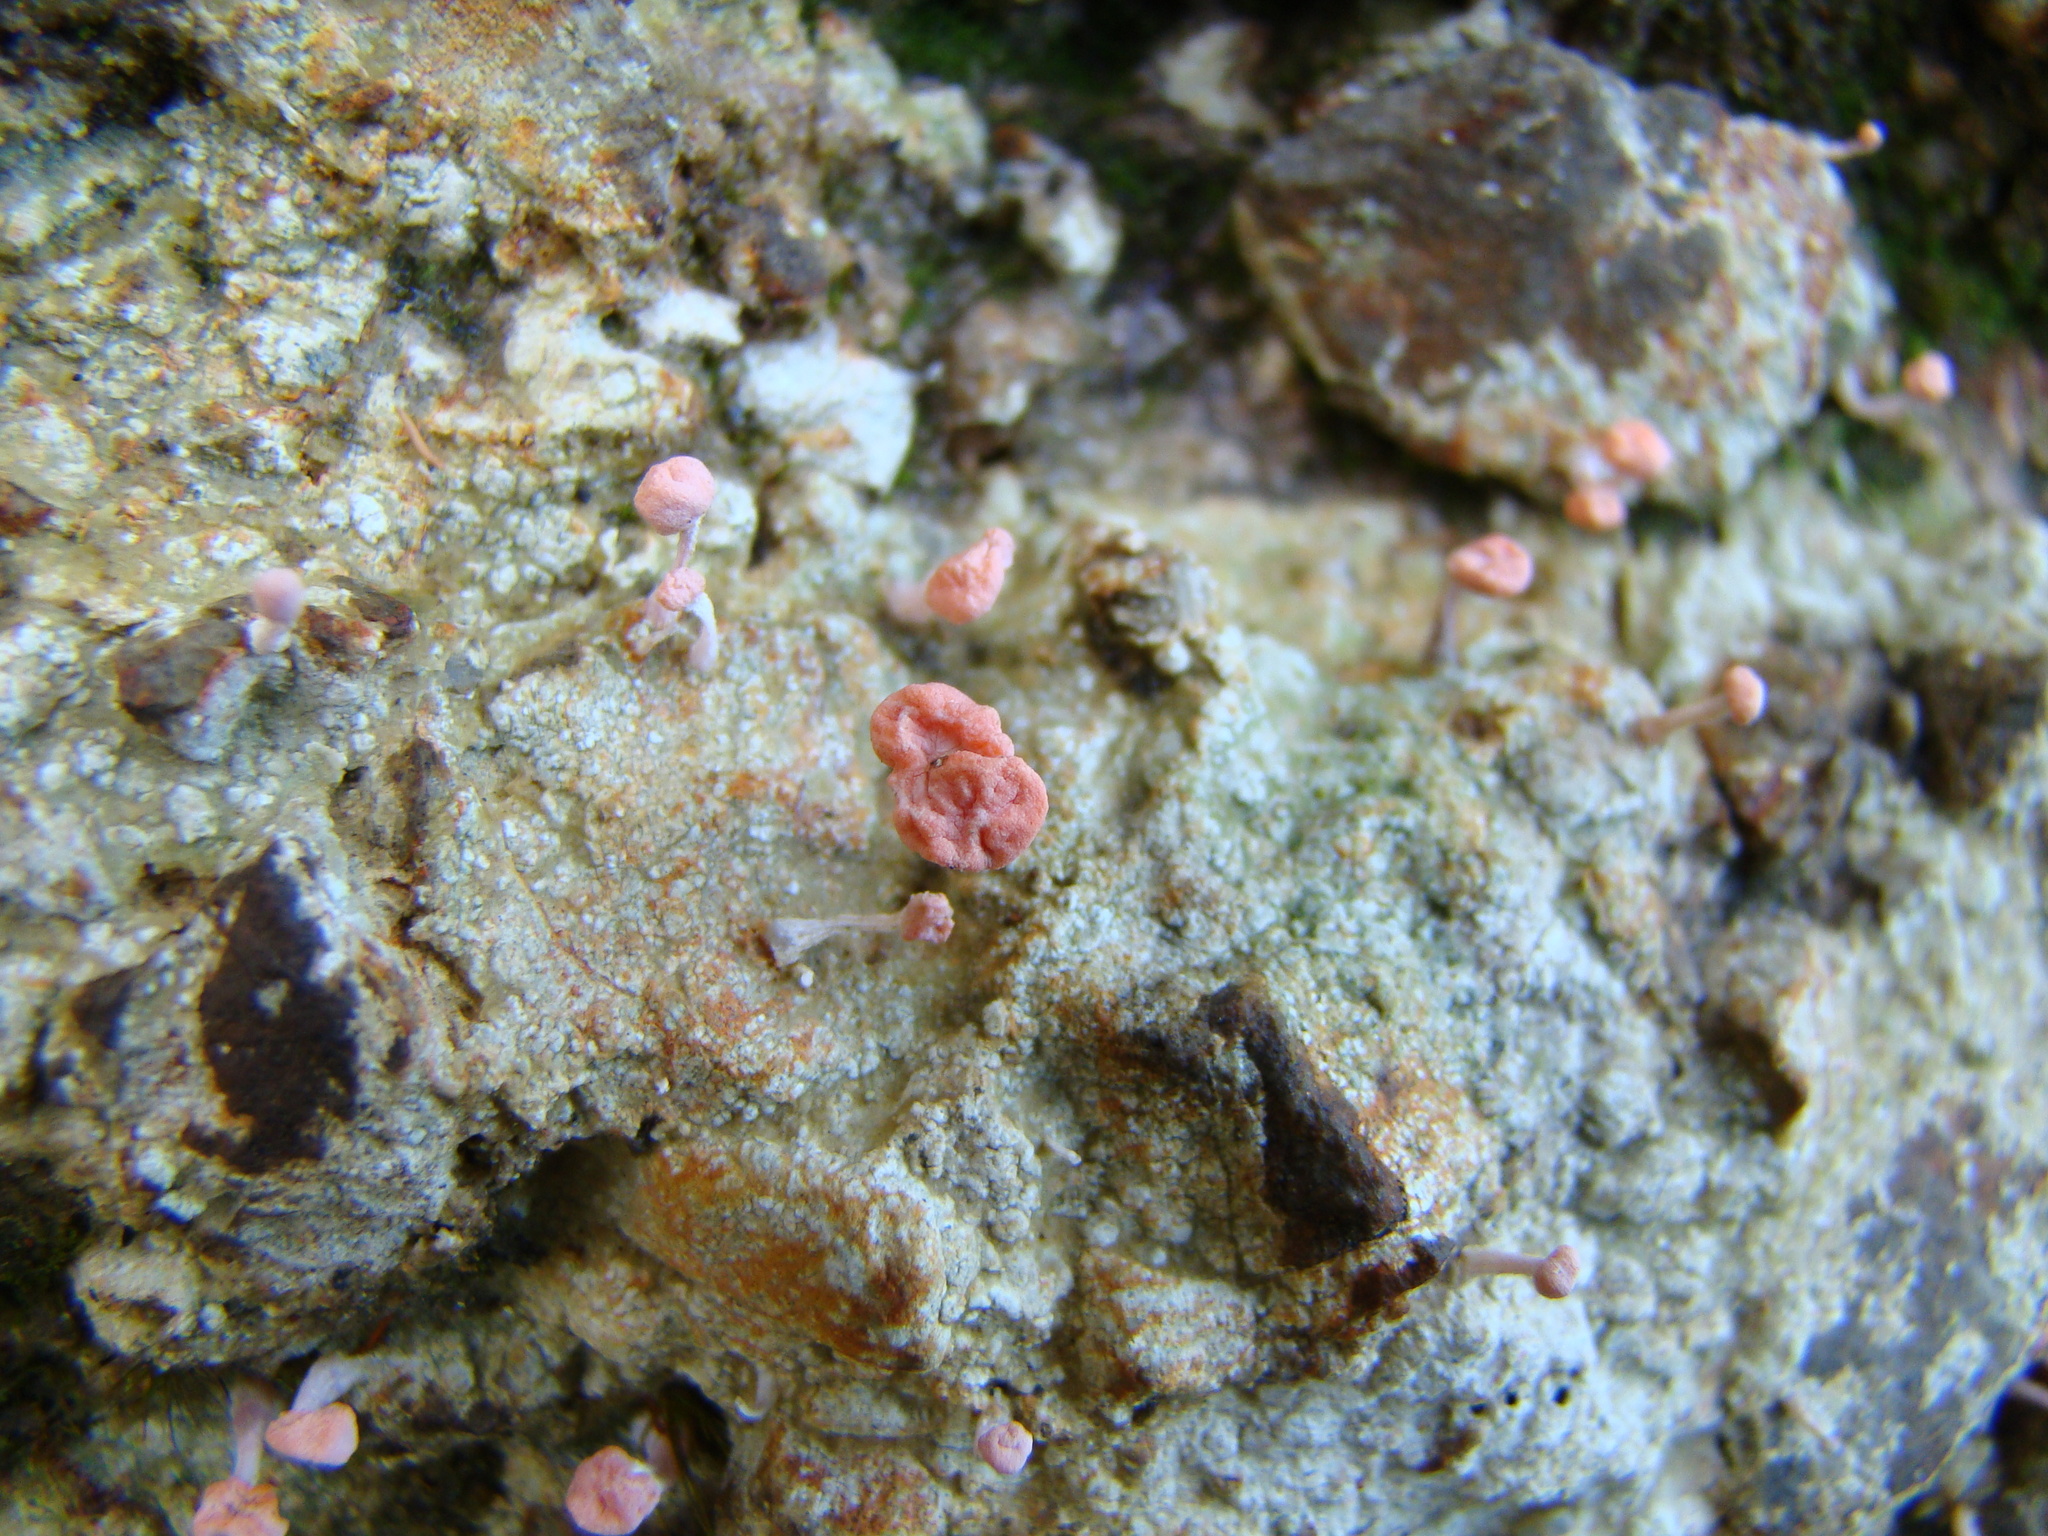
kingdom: Fungi
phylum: Ascomycota
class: Lecanoromycetes
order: Pertusariales
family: Icmadophilaceae
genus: Dibaeis
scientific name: Dibaeis arcuata
